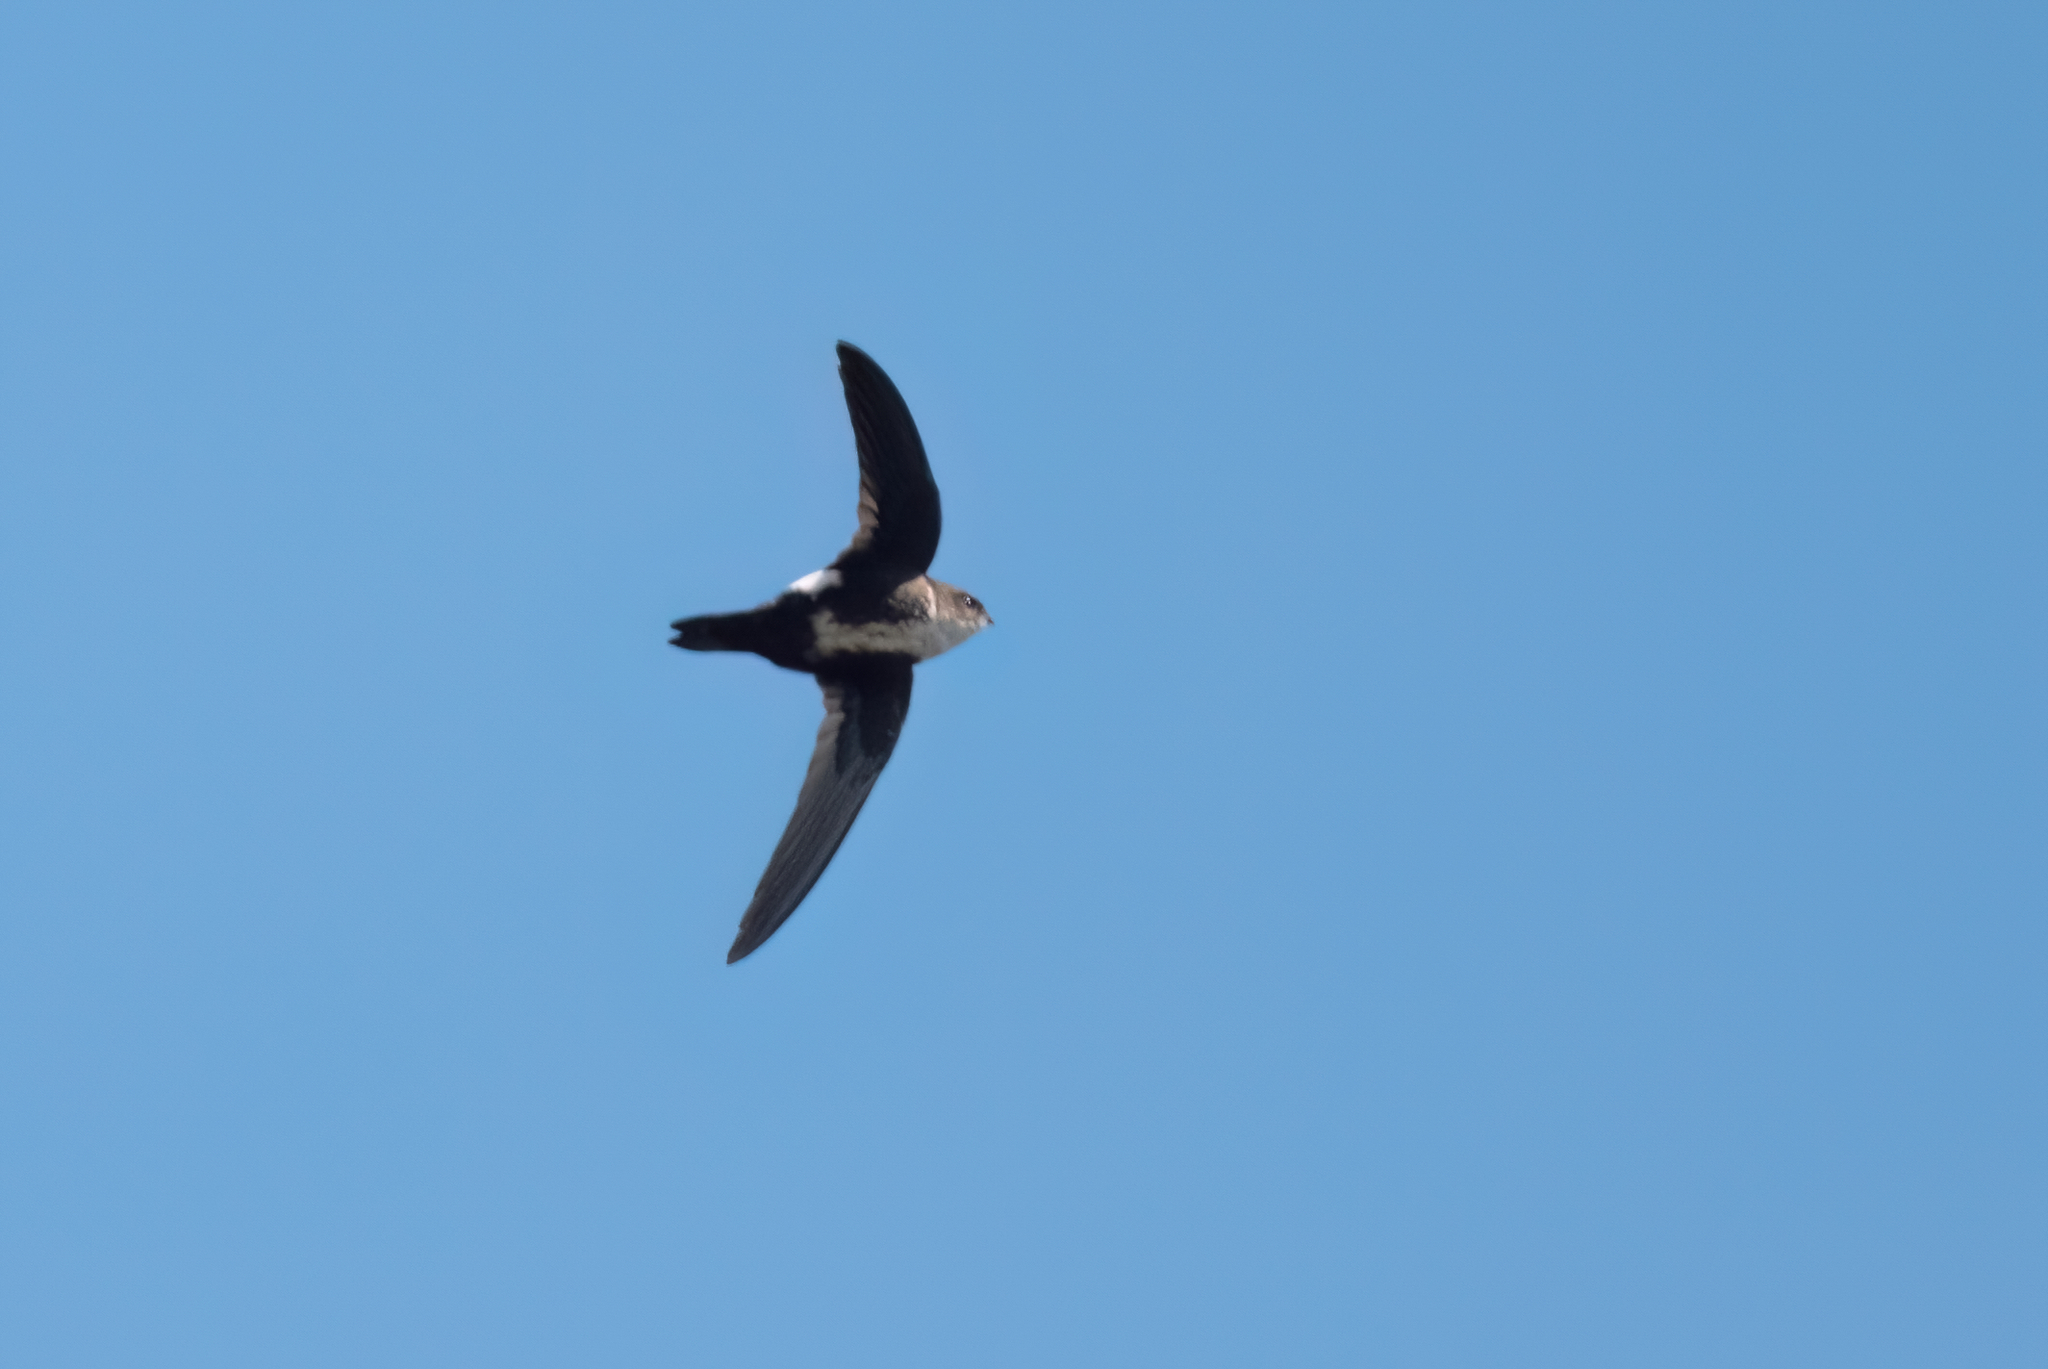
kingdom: Animalia
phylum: Chordata
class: Aves
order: Apodiformes
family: Apodidae
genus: Aeronautes
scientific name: Aeronautes saxatalis
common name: White-throated swift
